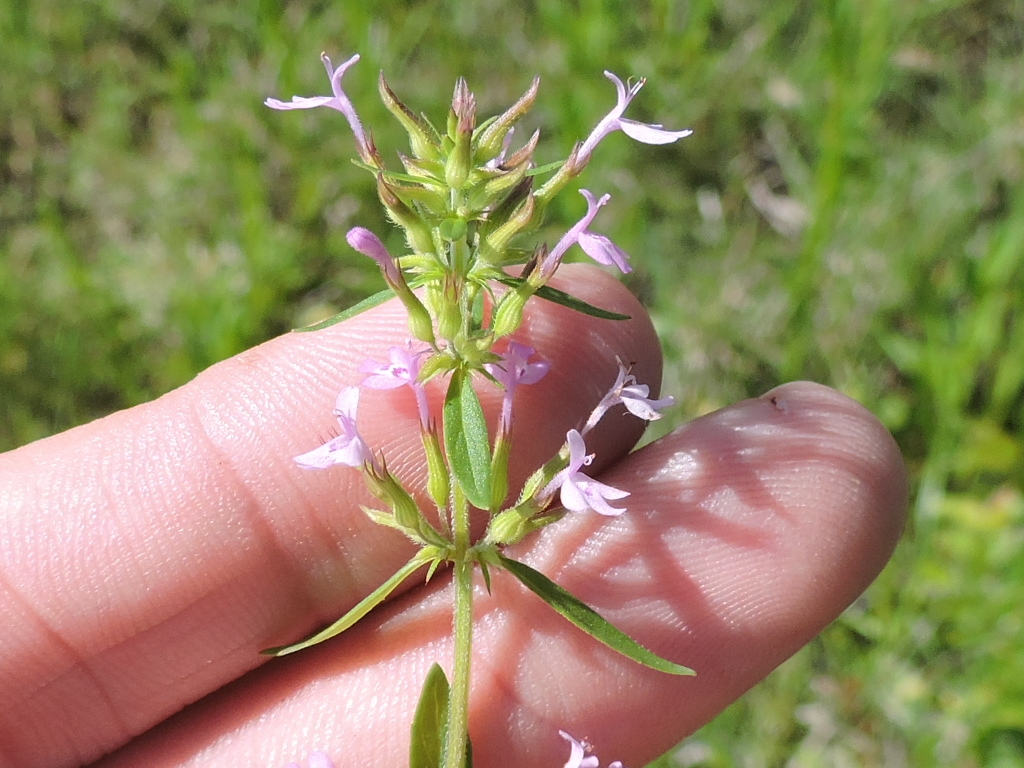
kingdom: Plantae
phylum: Tracheophyta
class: Magnoliopsida
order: Lamiales
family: Lamiaceae
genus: Hedeoma
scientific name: Hedeoma acinoides
